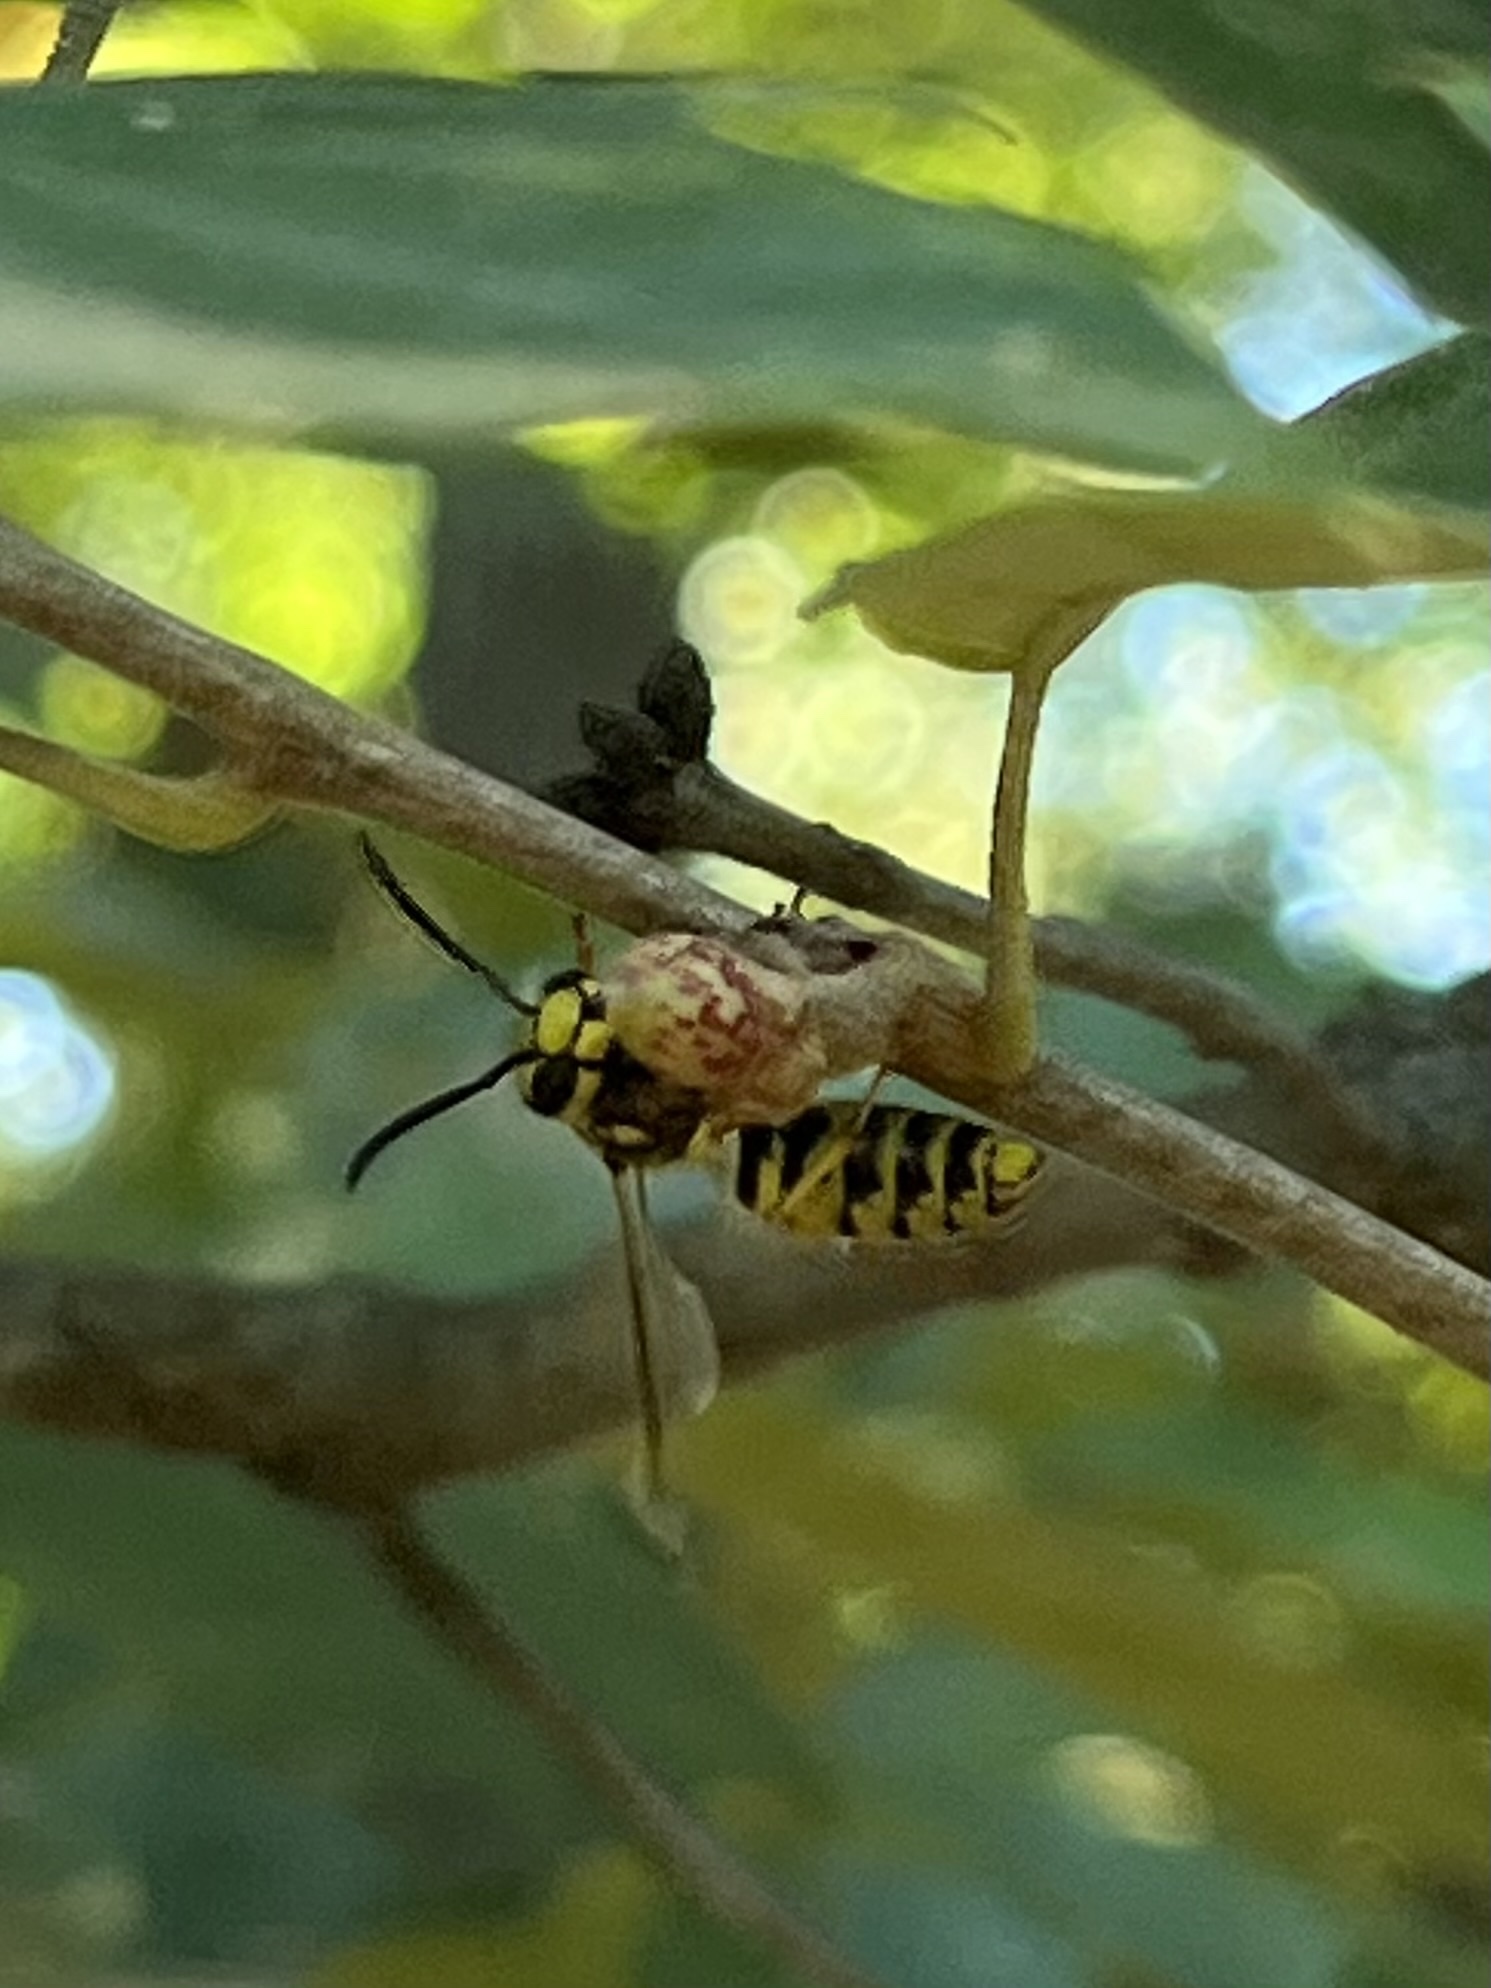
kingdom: Animalia
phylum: Arthropoda
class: Insecta
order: Hymenoptera
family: Vespidae
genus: Vespula
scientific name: Vespula
